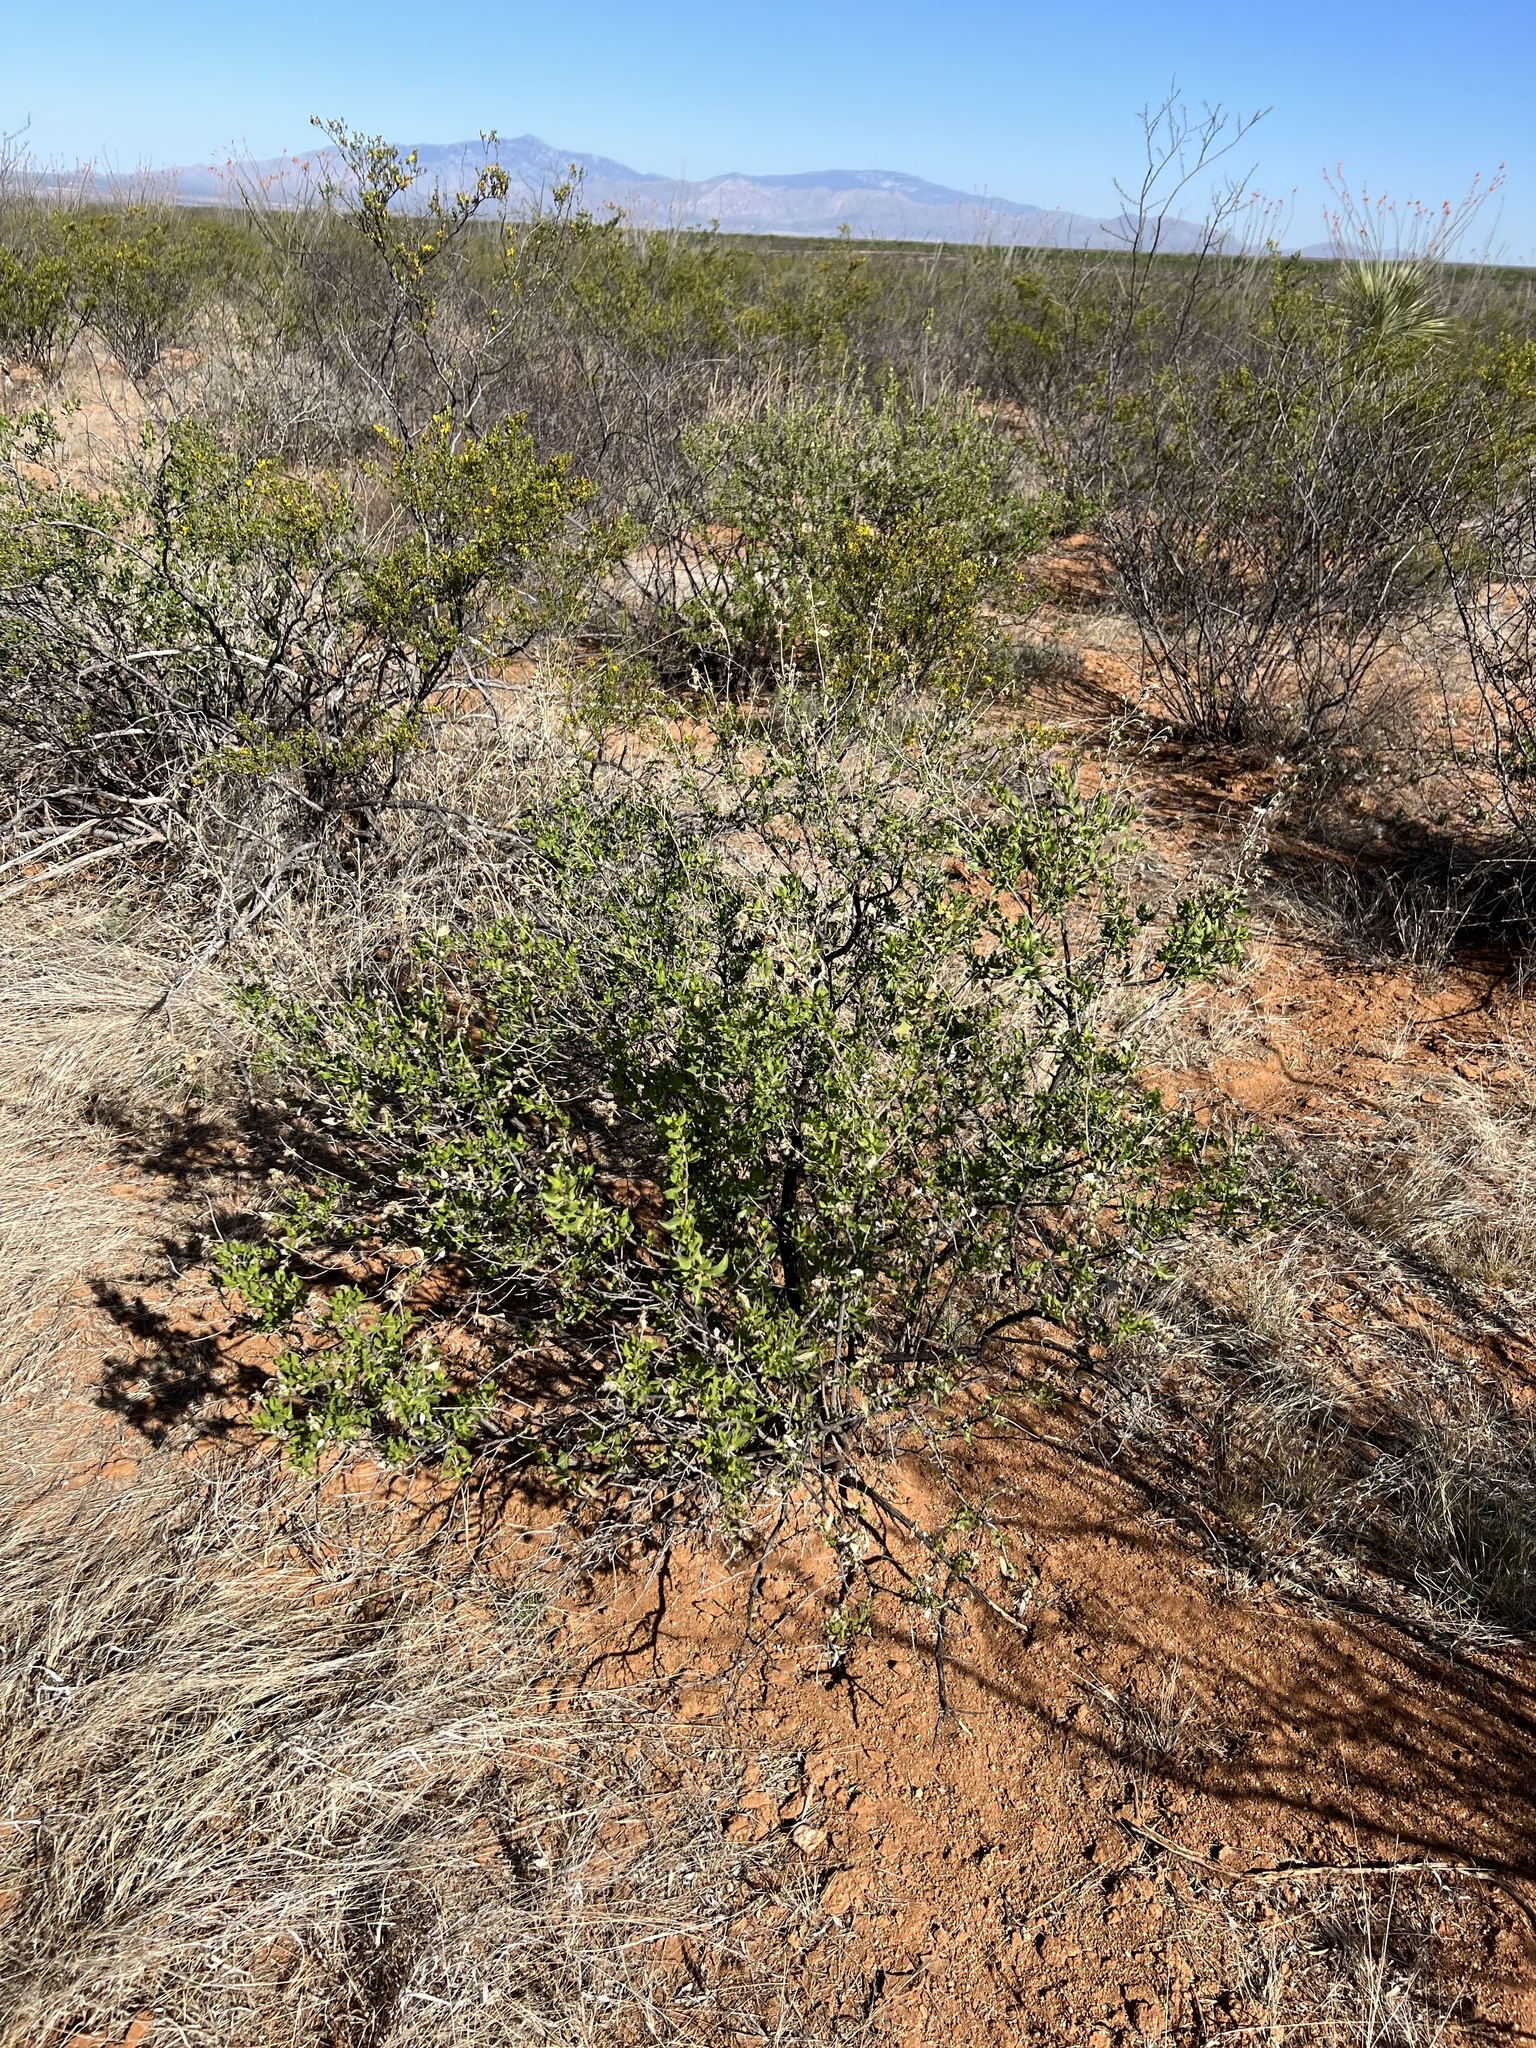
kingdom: Plantae
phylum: Tracheophyta
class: Magnoliopsida
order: Asterales
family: Asteraceae
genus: Flourensia
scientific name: Flourensia cernua
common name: Varnishbush
